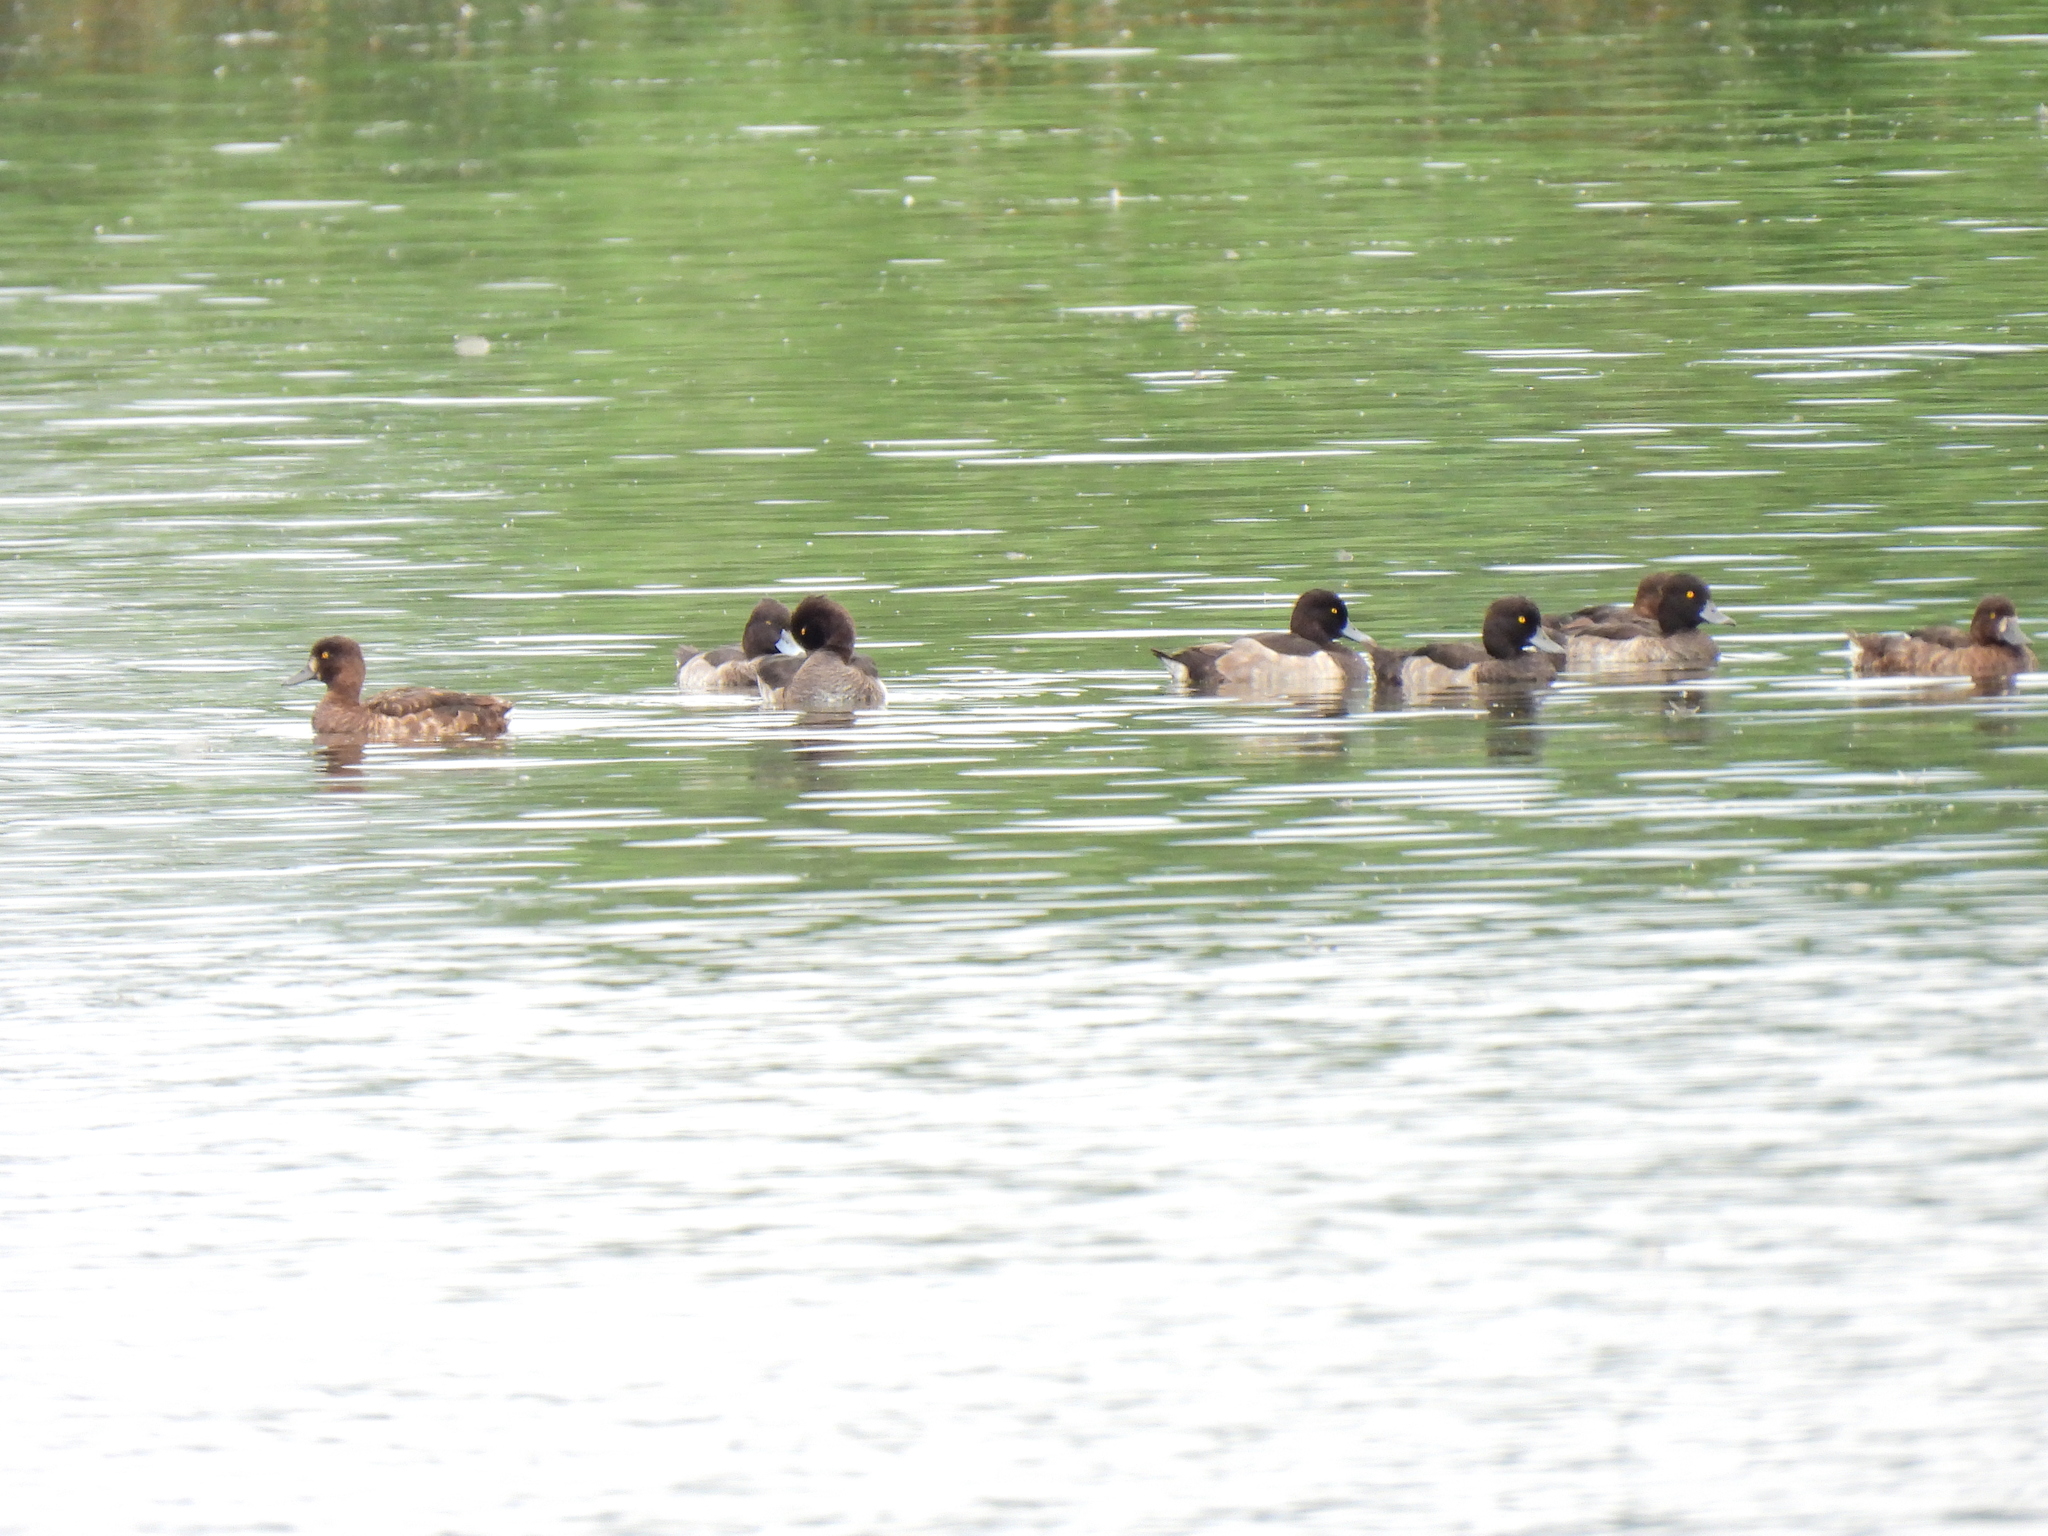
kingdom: Animalia
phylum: Chordata
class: Aves
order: Anseriformes
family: Anatidae
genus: Aythya
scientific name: Aythya fuligula
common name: Tufted duck
